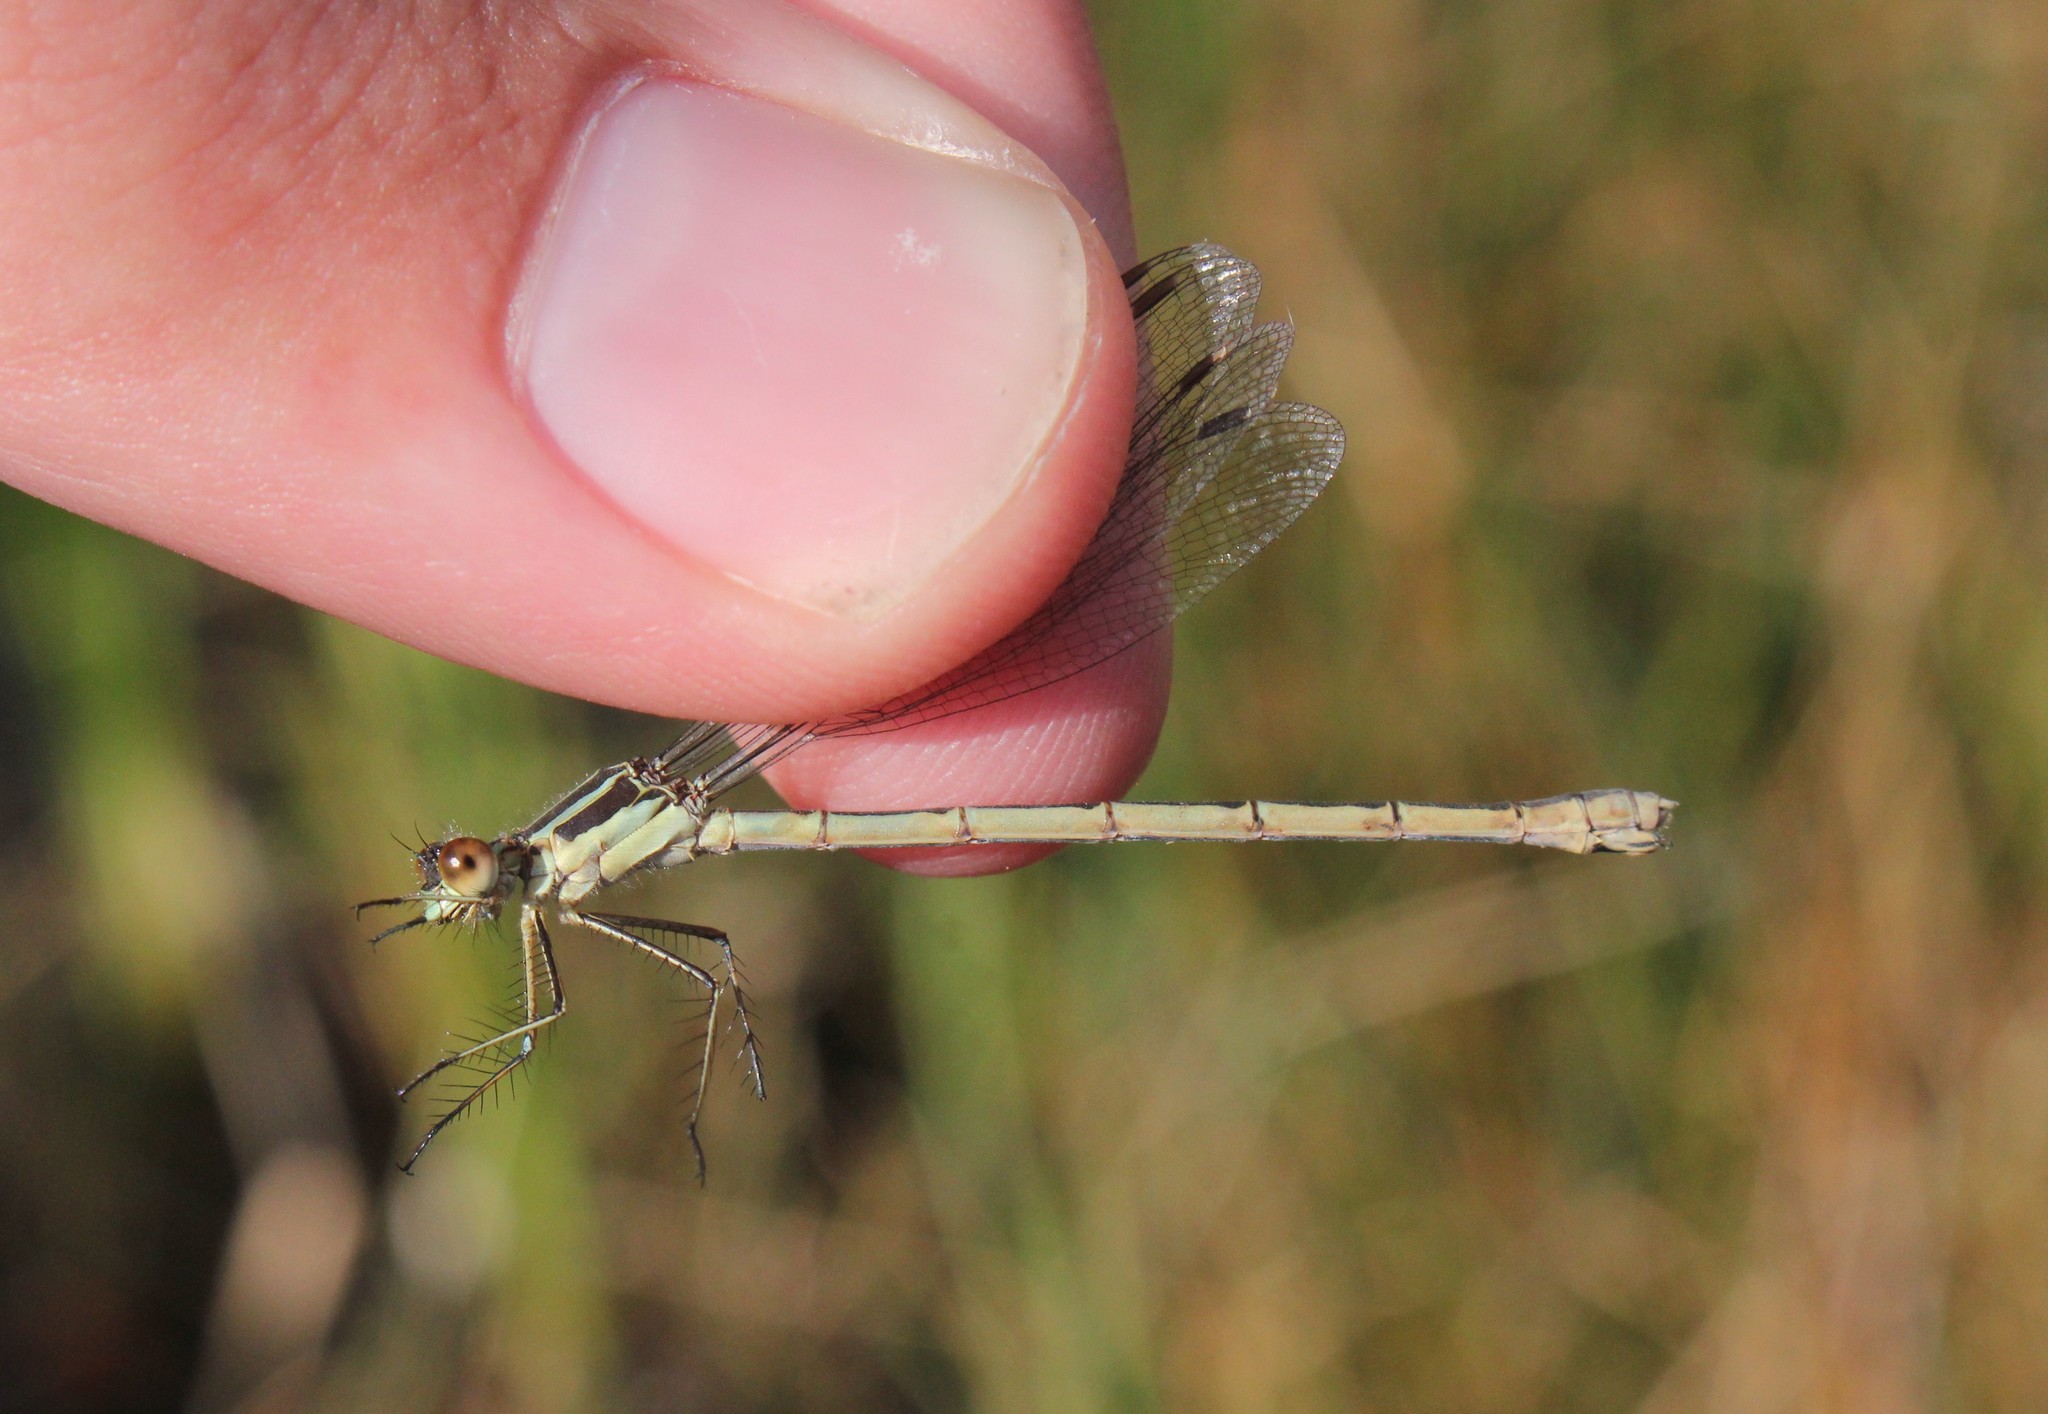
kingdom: Animalia
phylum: Arthropoda
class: Insecta
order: Odonata
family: Lestidae
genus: Lestes
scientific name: Lestes disjunctus
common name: Northern spreadwing
